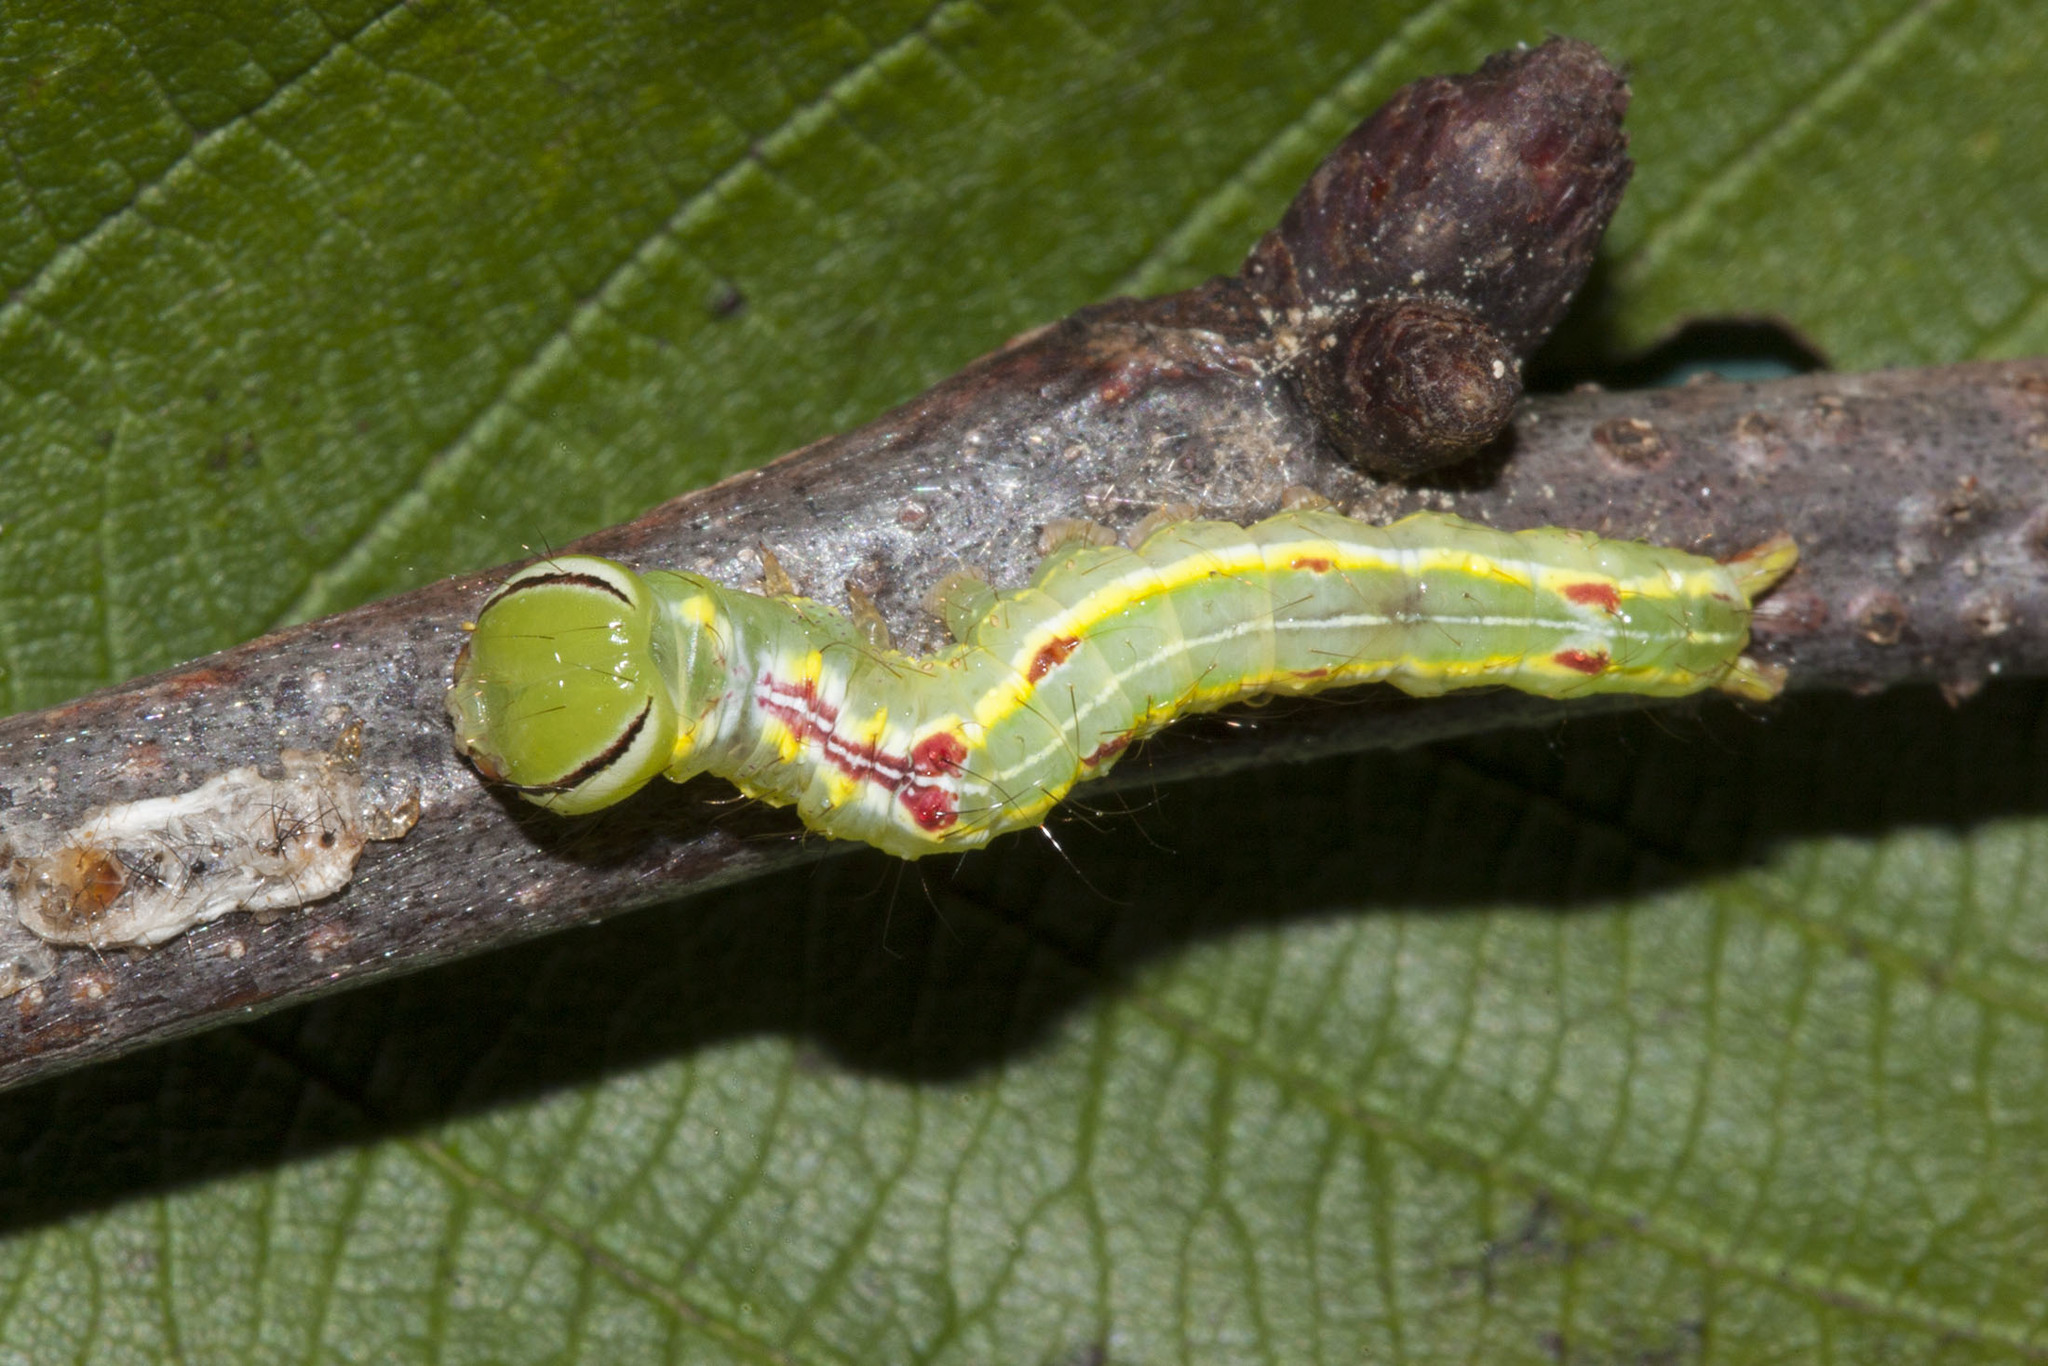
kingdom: Animalia
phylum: Arthropoda
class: Insecta
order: Lepidoptera
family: Notodontidae
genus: Lochmaeus
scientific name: Lochmaeus manteo
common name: Variable oakleaf caterpillar moth
